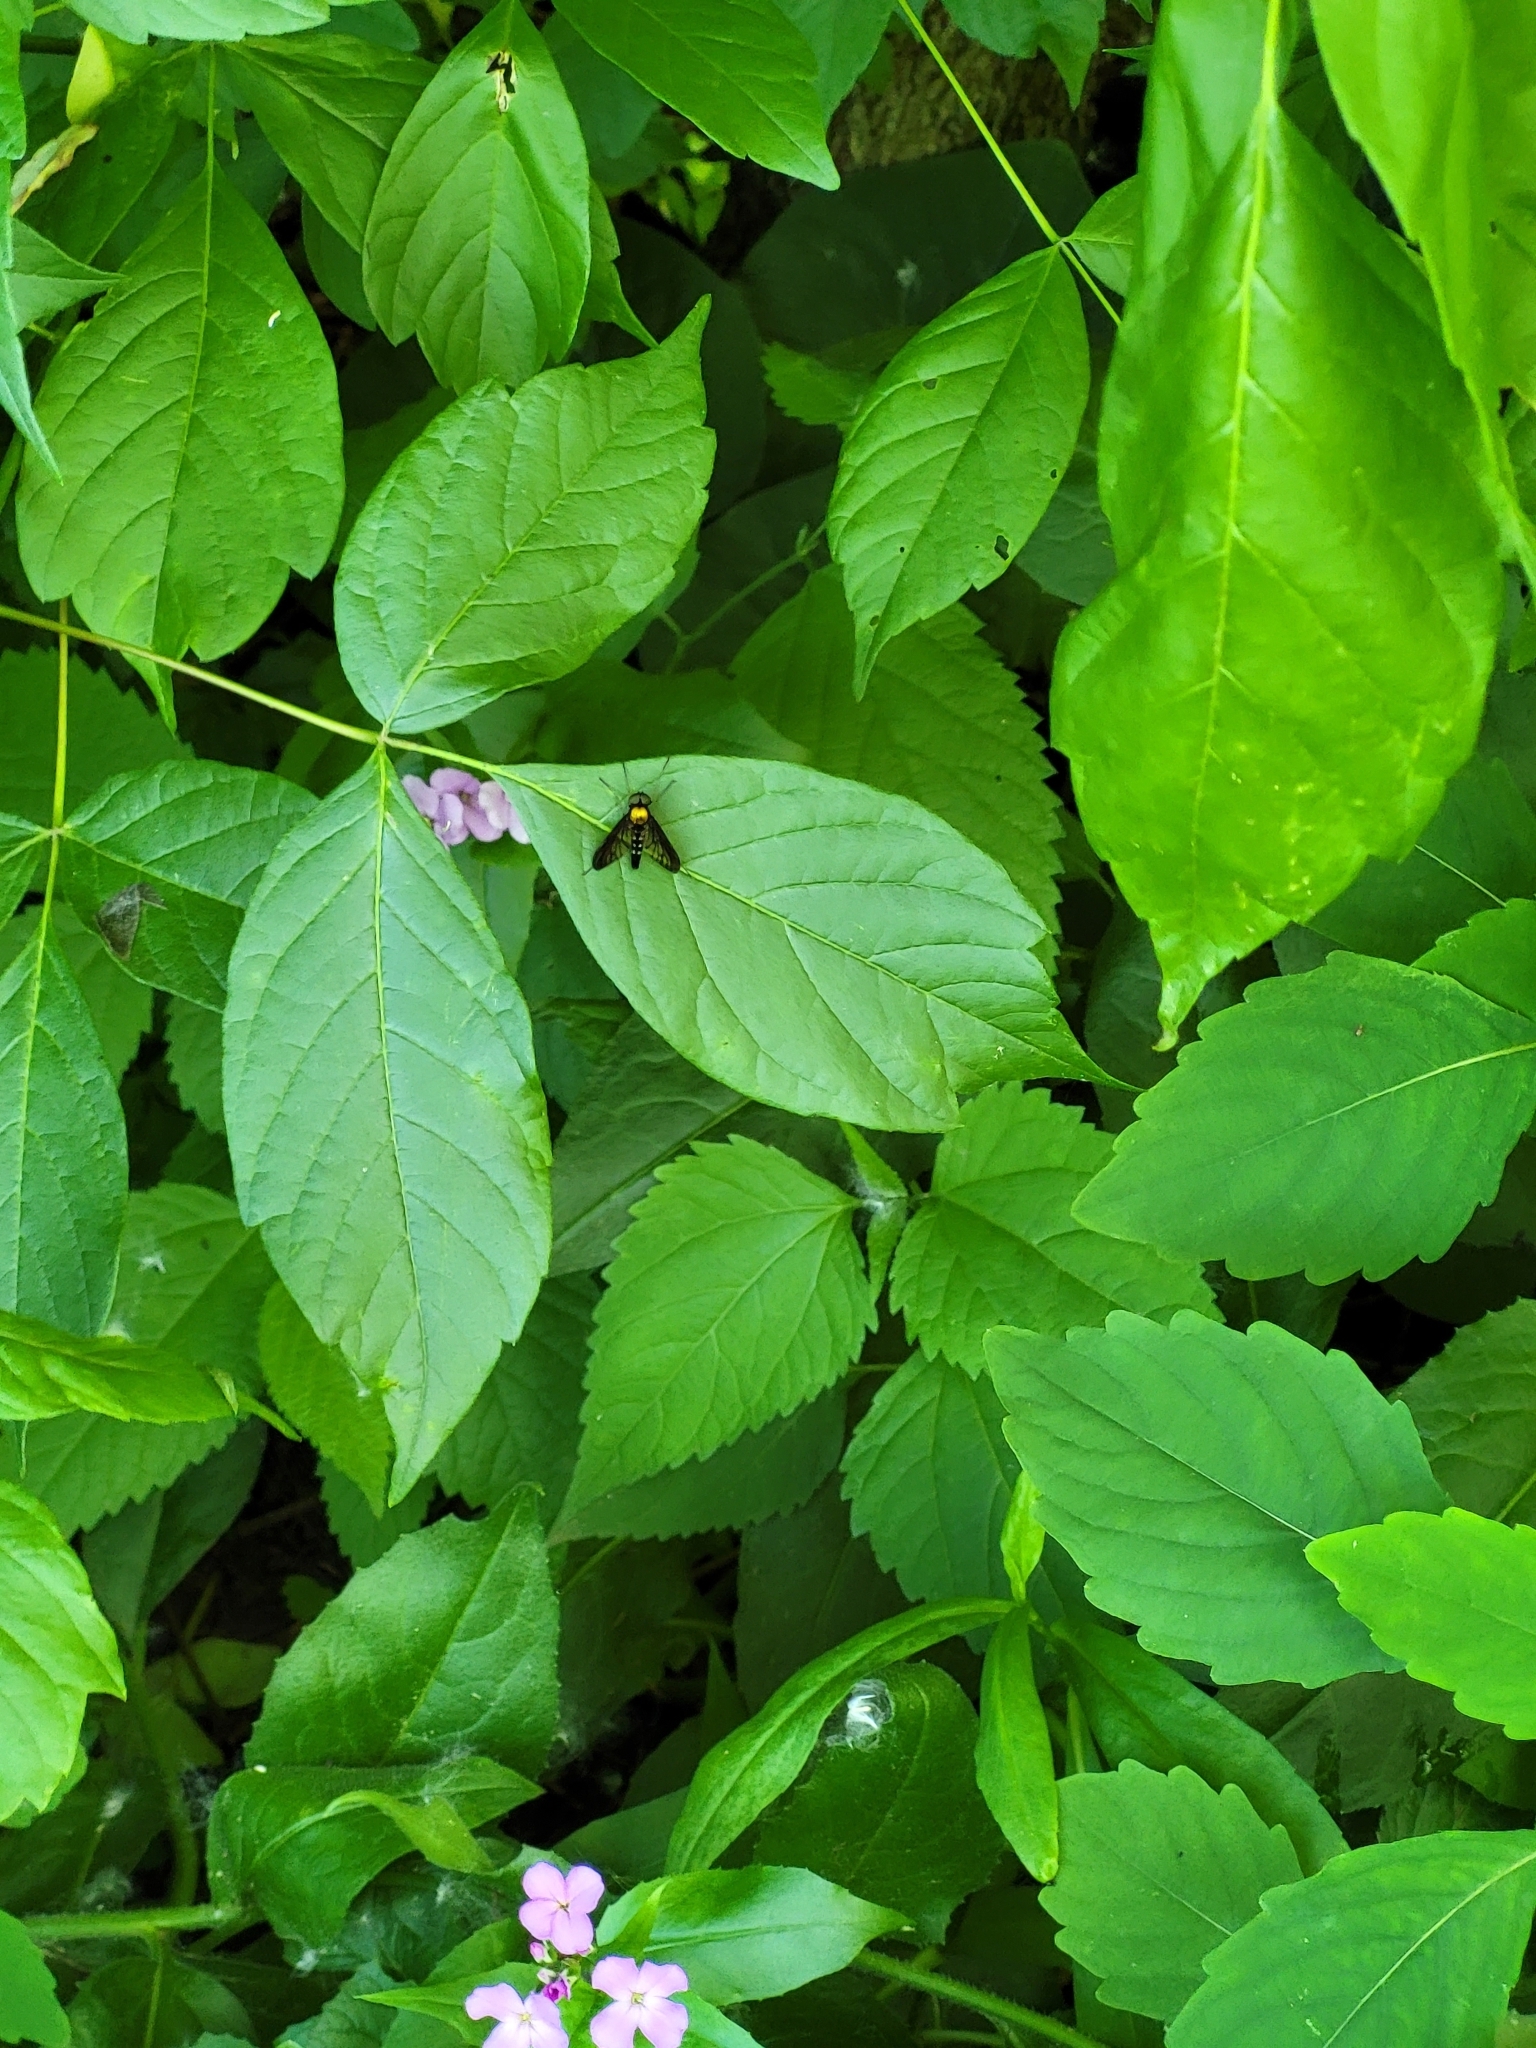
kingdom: Animalia
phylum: Arthropoda
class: Insecta
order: Diptera
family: Rhagionidae
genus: Chrysopilus
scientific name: Chrysopilus thoracicus
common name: Golden-backed snipe fly
